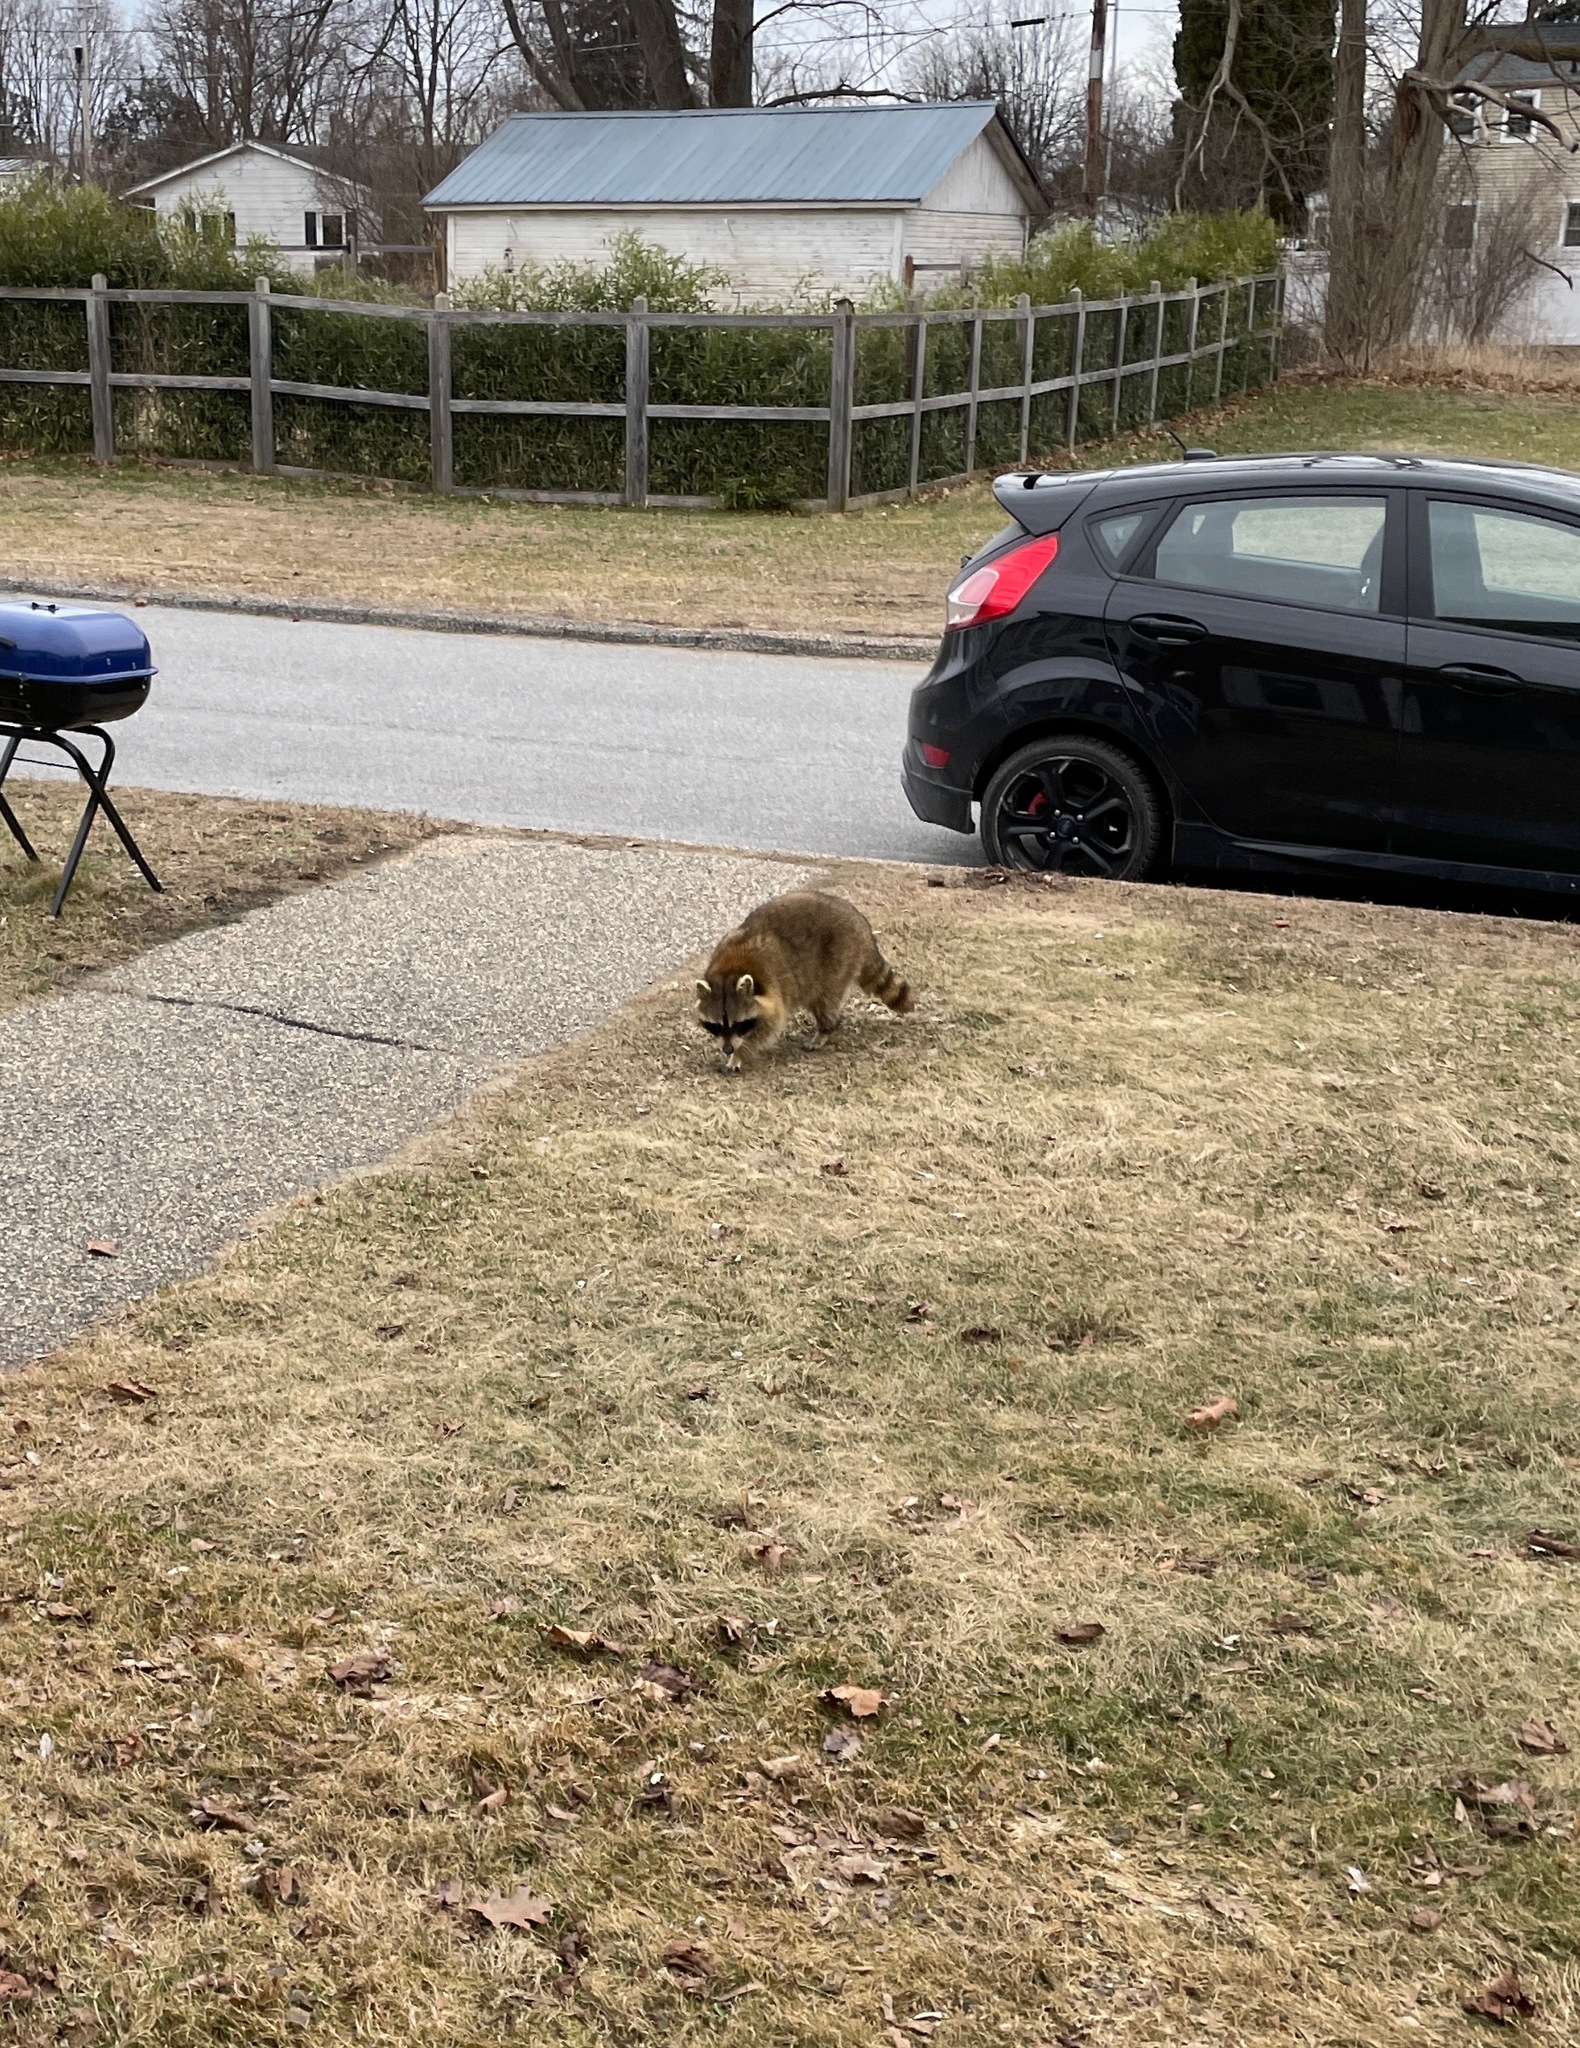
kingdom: Animalia
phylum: Chordata
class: Mammalia
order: Carnivora
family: Procyonidae
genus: Procyon
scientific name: Procyon lotor
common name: Raccoon
